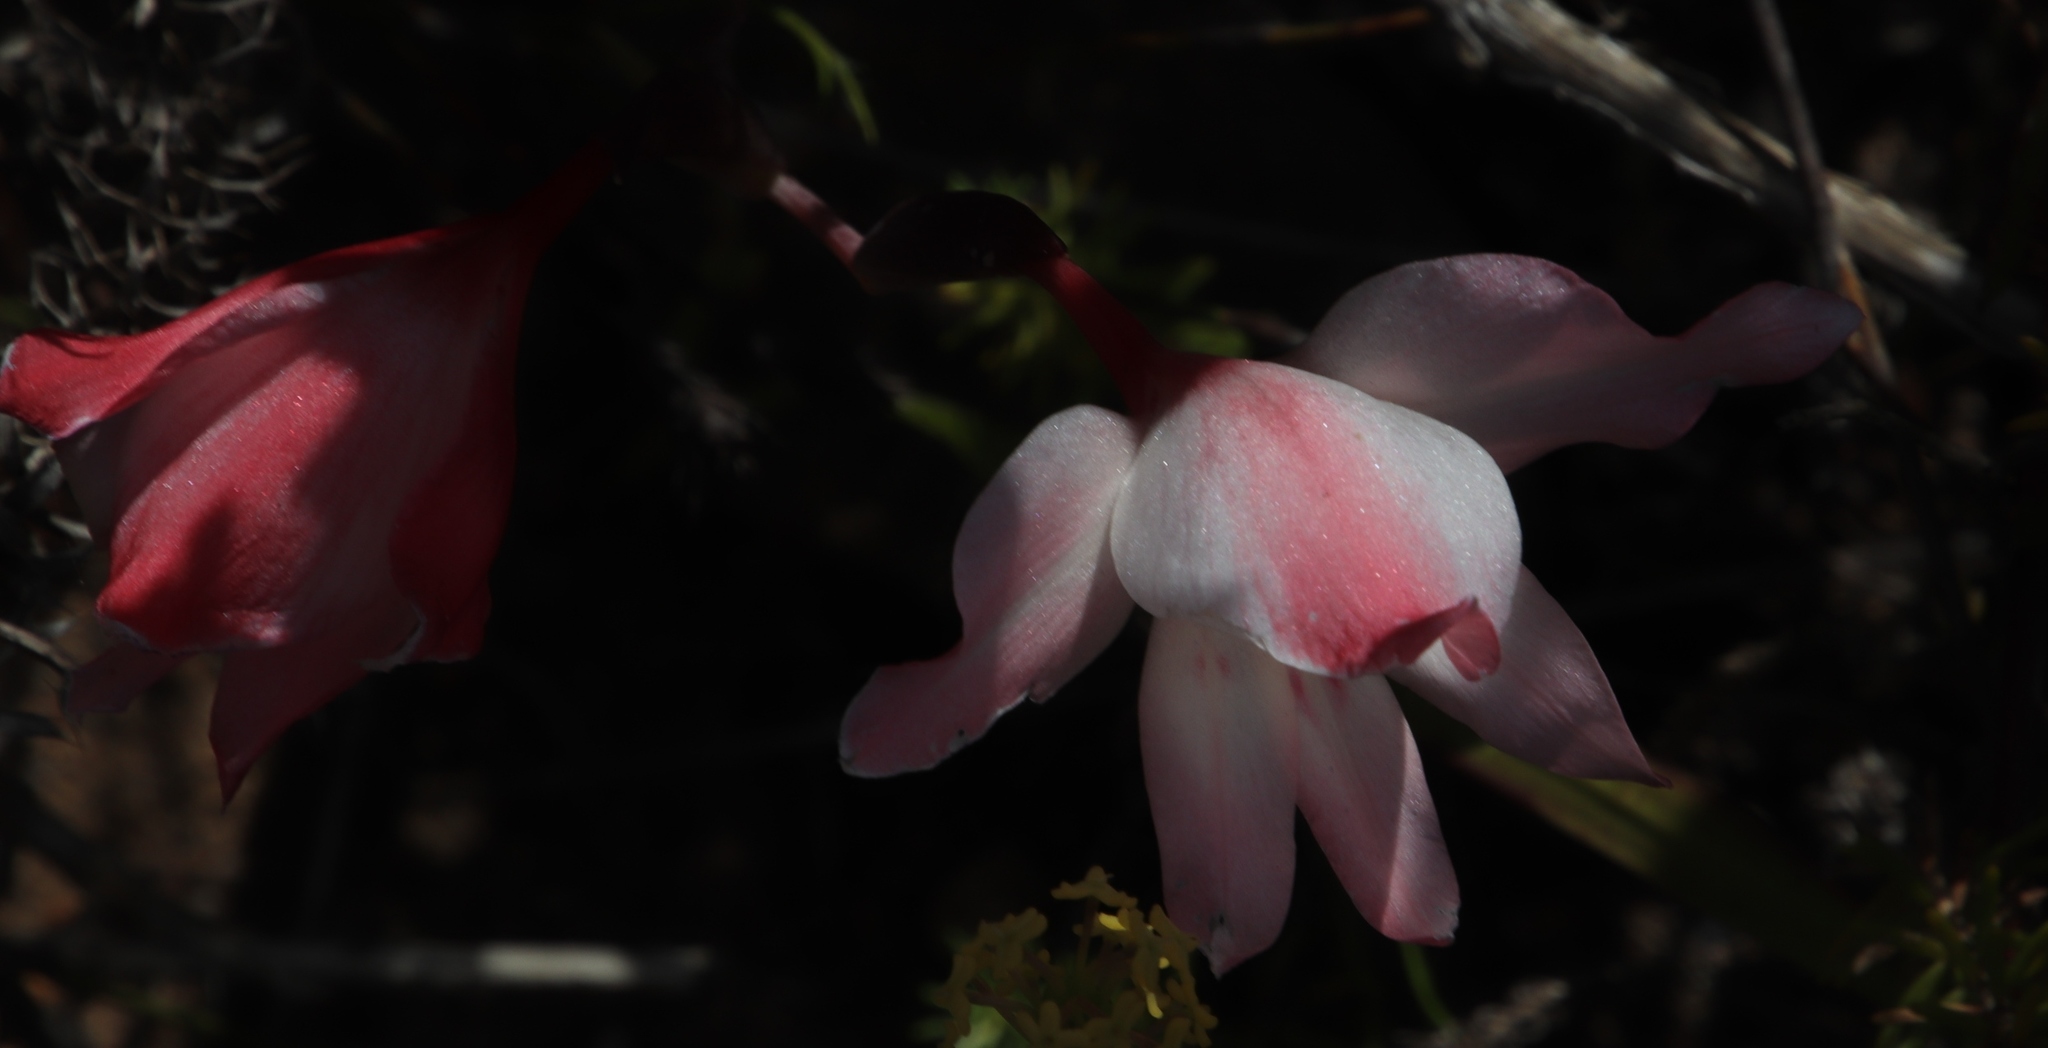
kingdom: Plantae
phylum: Tracheophyta
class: Liliopsida
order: Asparagales
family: Iridaceae
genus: Gladiolus
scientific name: Gladiolus carneus
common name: Painted-lady
